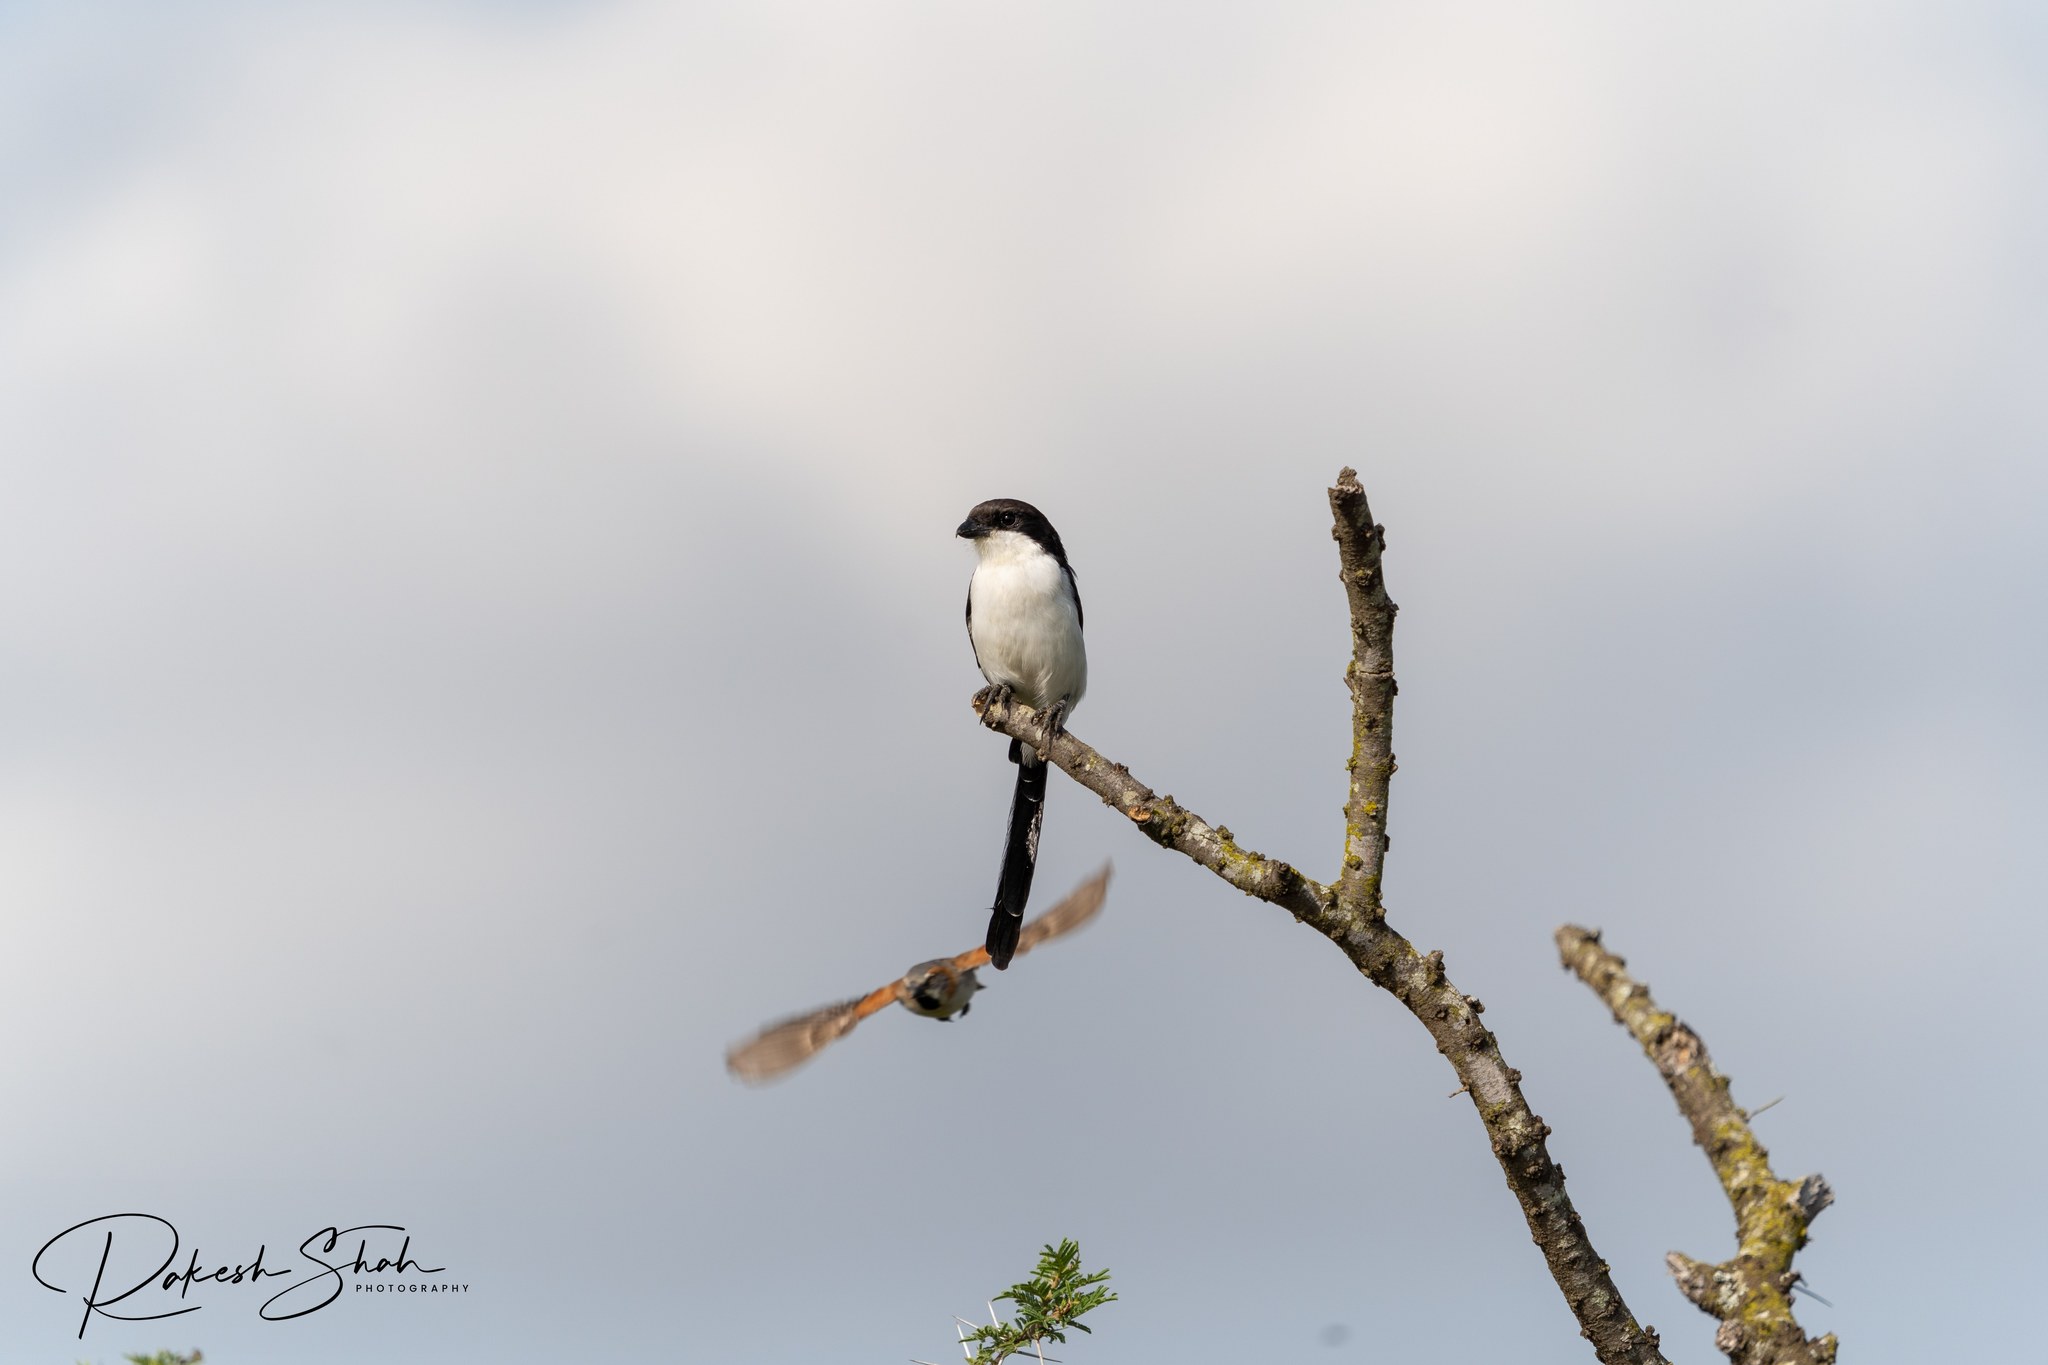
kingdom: Animalia
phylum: Chordata
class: Aves
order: Passeriformes
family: Laniidae
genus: Lanius
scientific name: Lanius cabanisi
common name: Long-tailed fiscal
